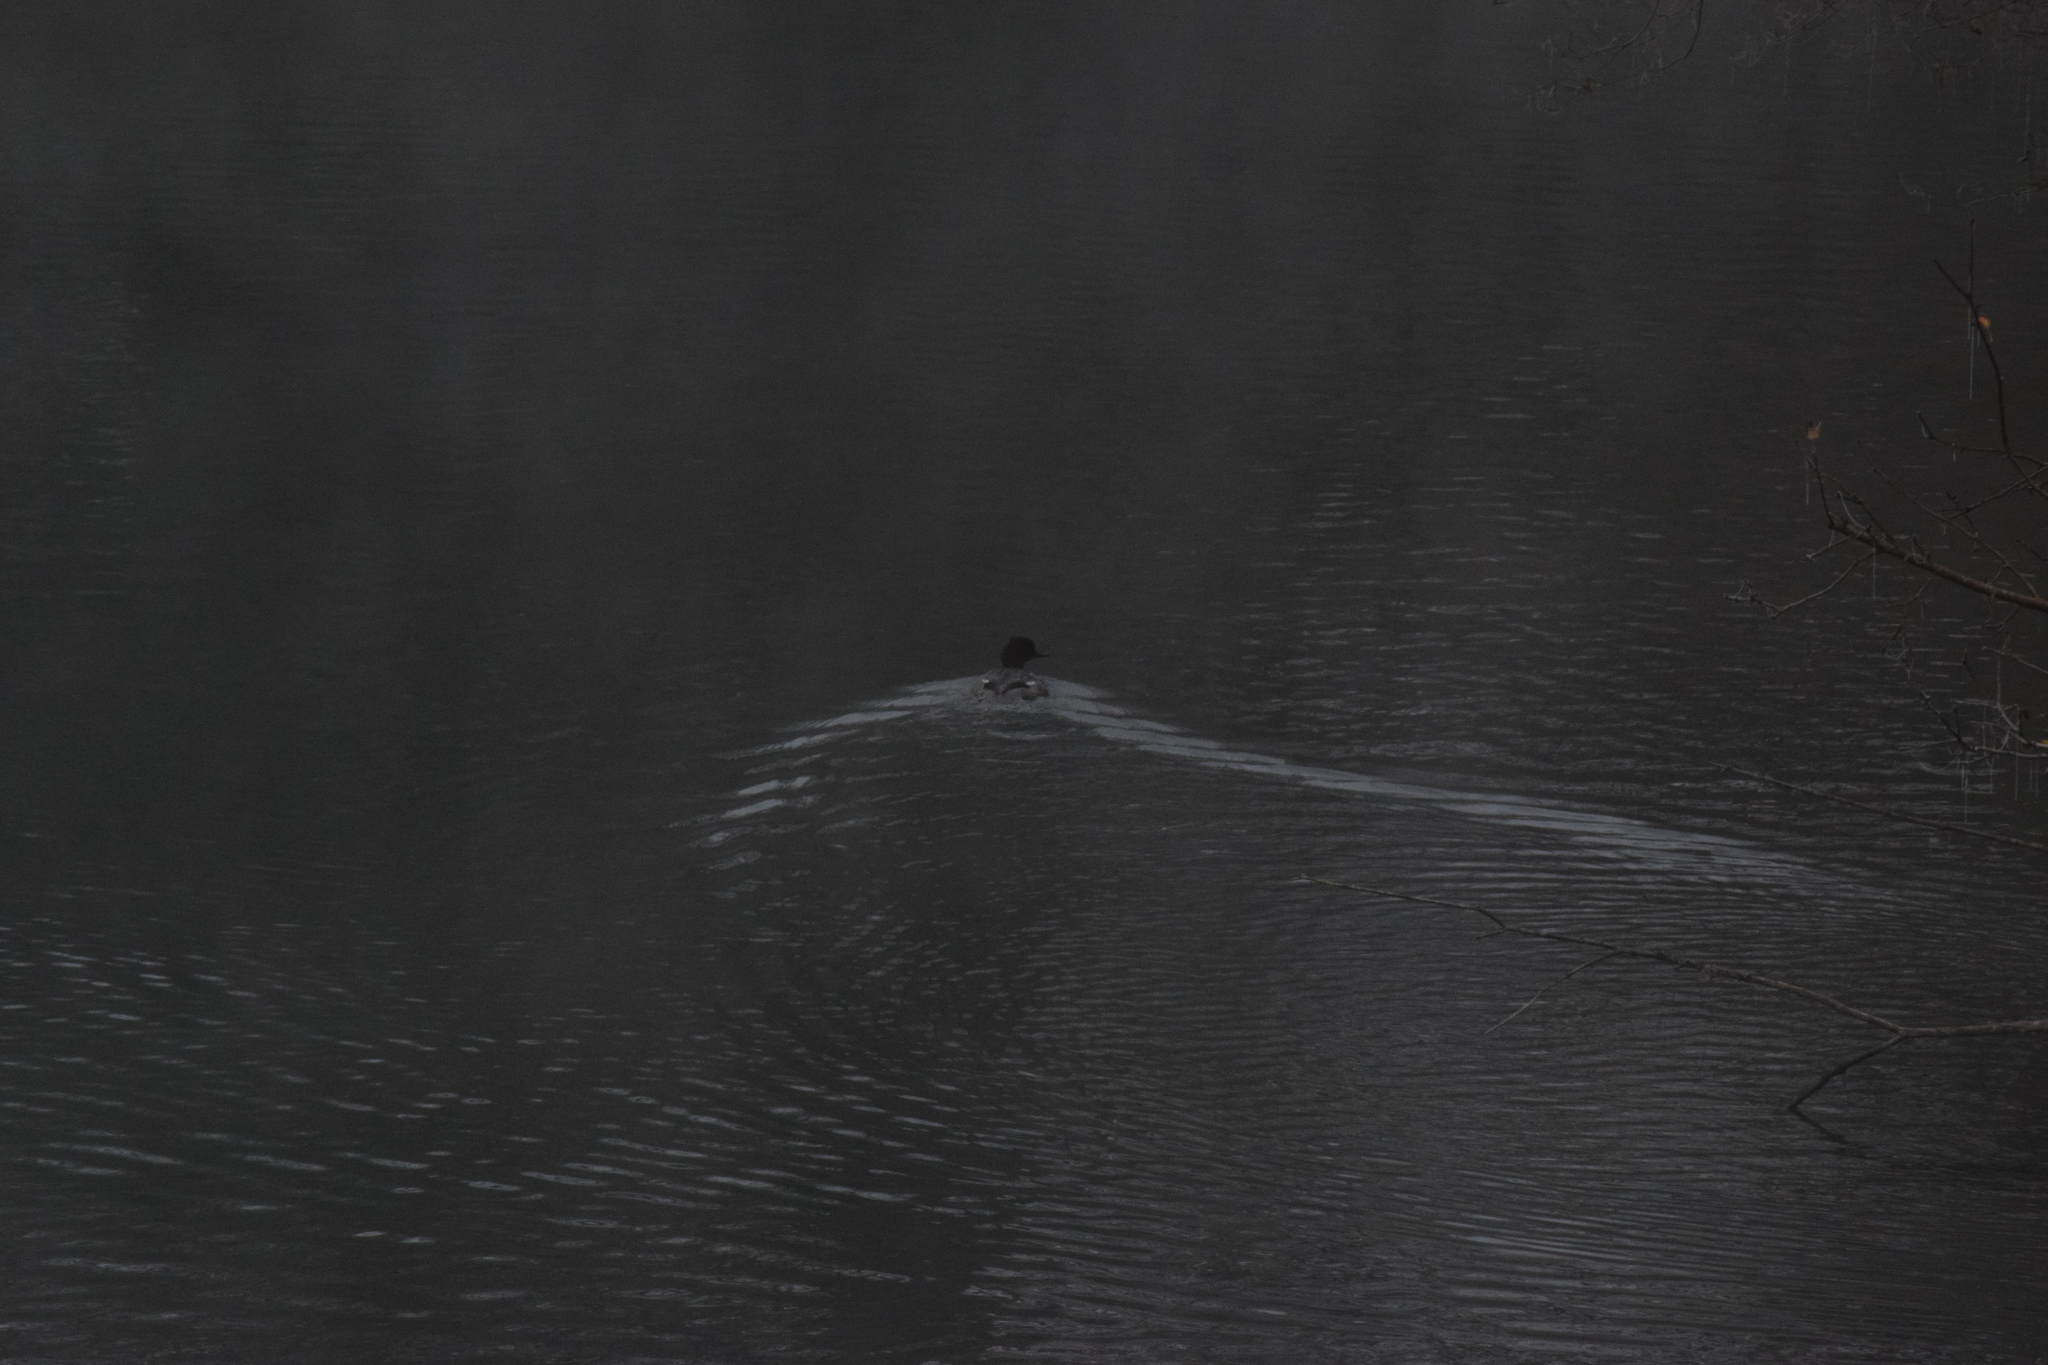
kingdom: Animalia
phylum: Chordata
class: Aves
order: Anseriformes
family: Anatidae
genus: Mergus
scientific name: Mergus merganser
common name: Common merganser
